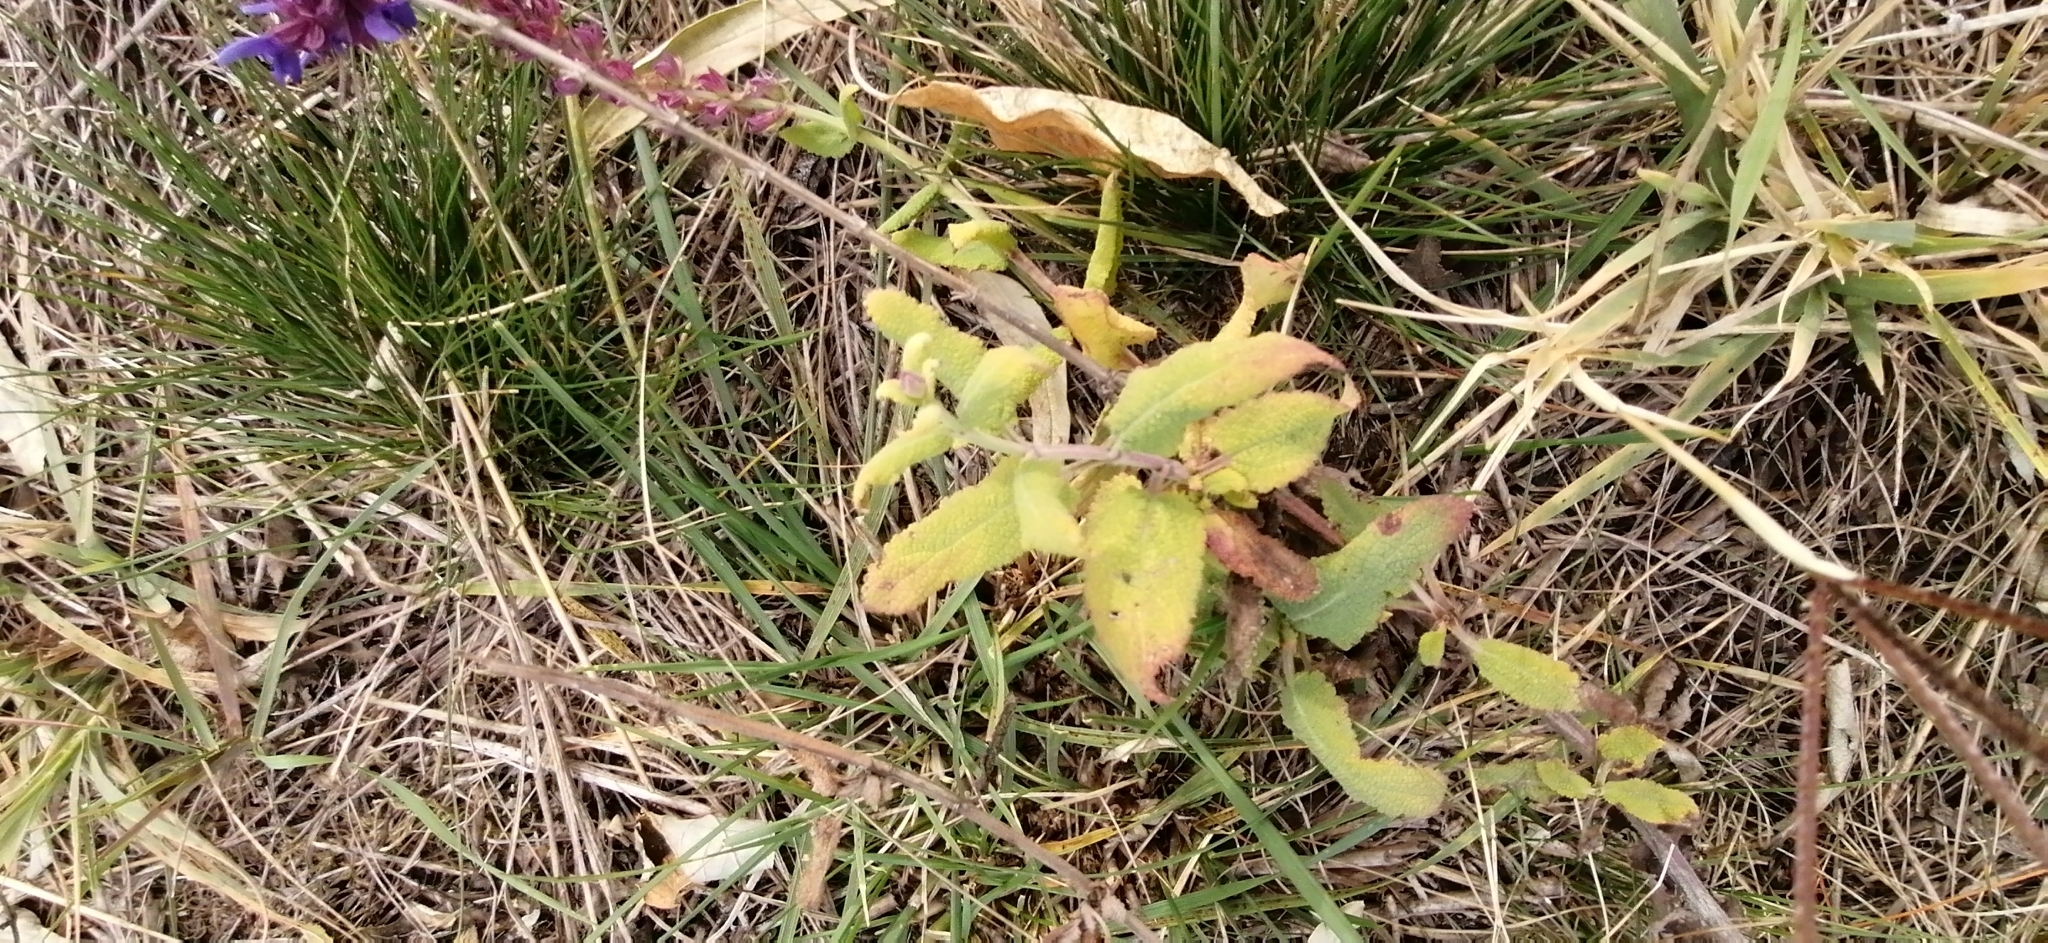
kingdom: Plantae
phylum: Tracheophyta
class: Magnoliopsida
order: Lamiales
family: Lamiaceae
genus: Salvia
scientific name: Salvia nemorosa
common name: Balkan clary
